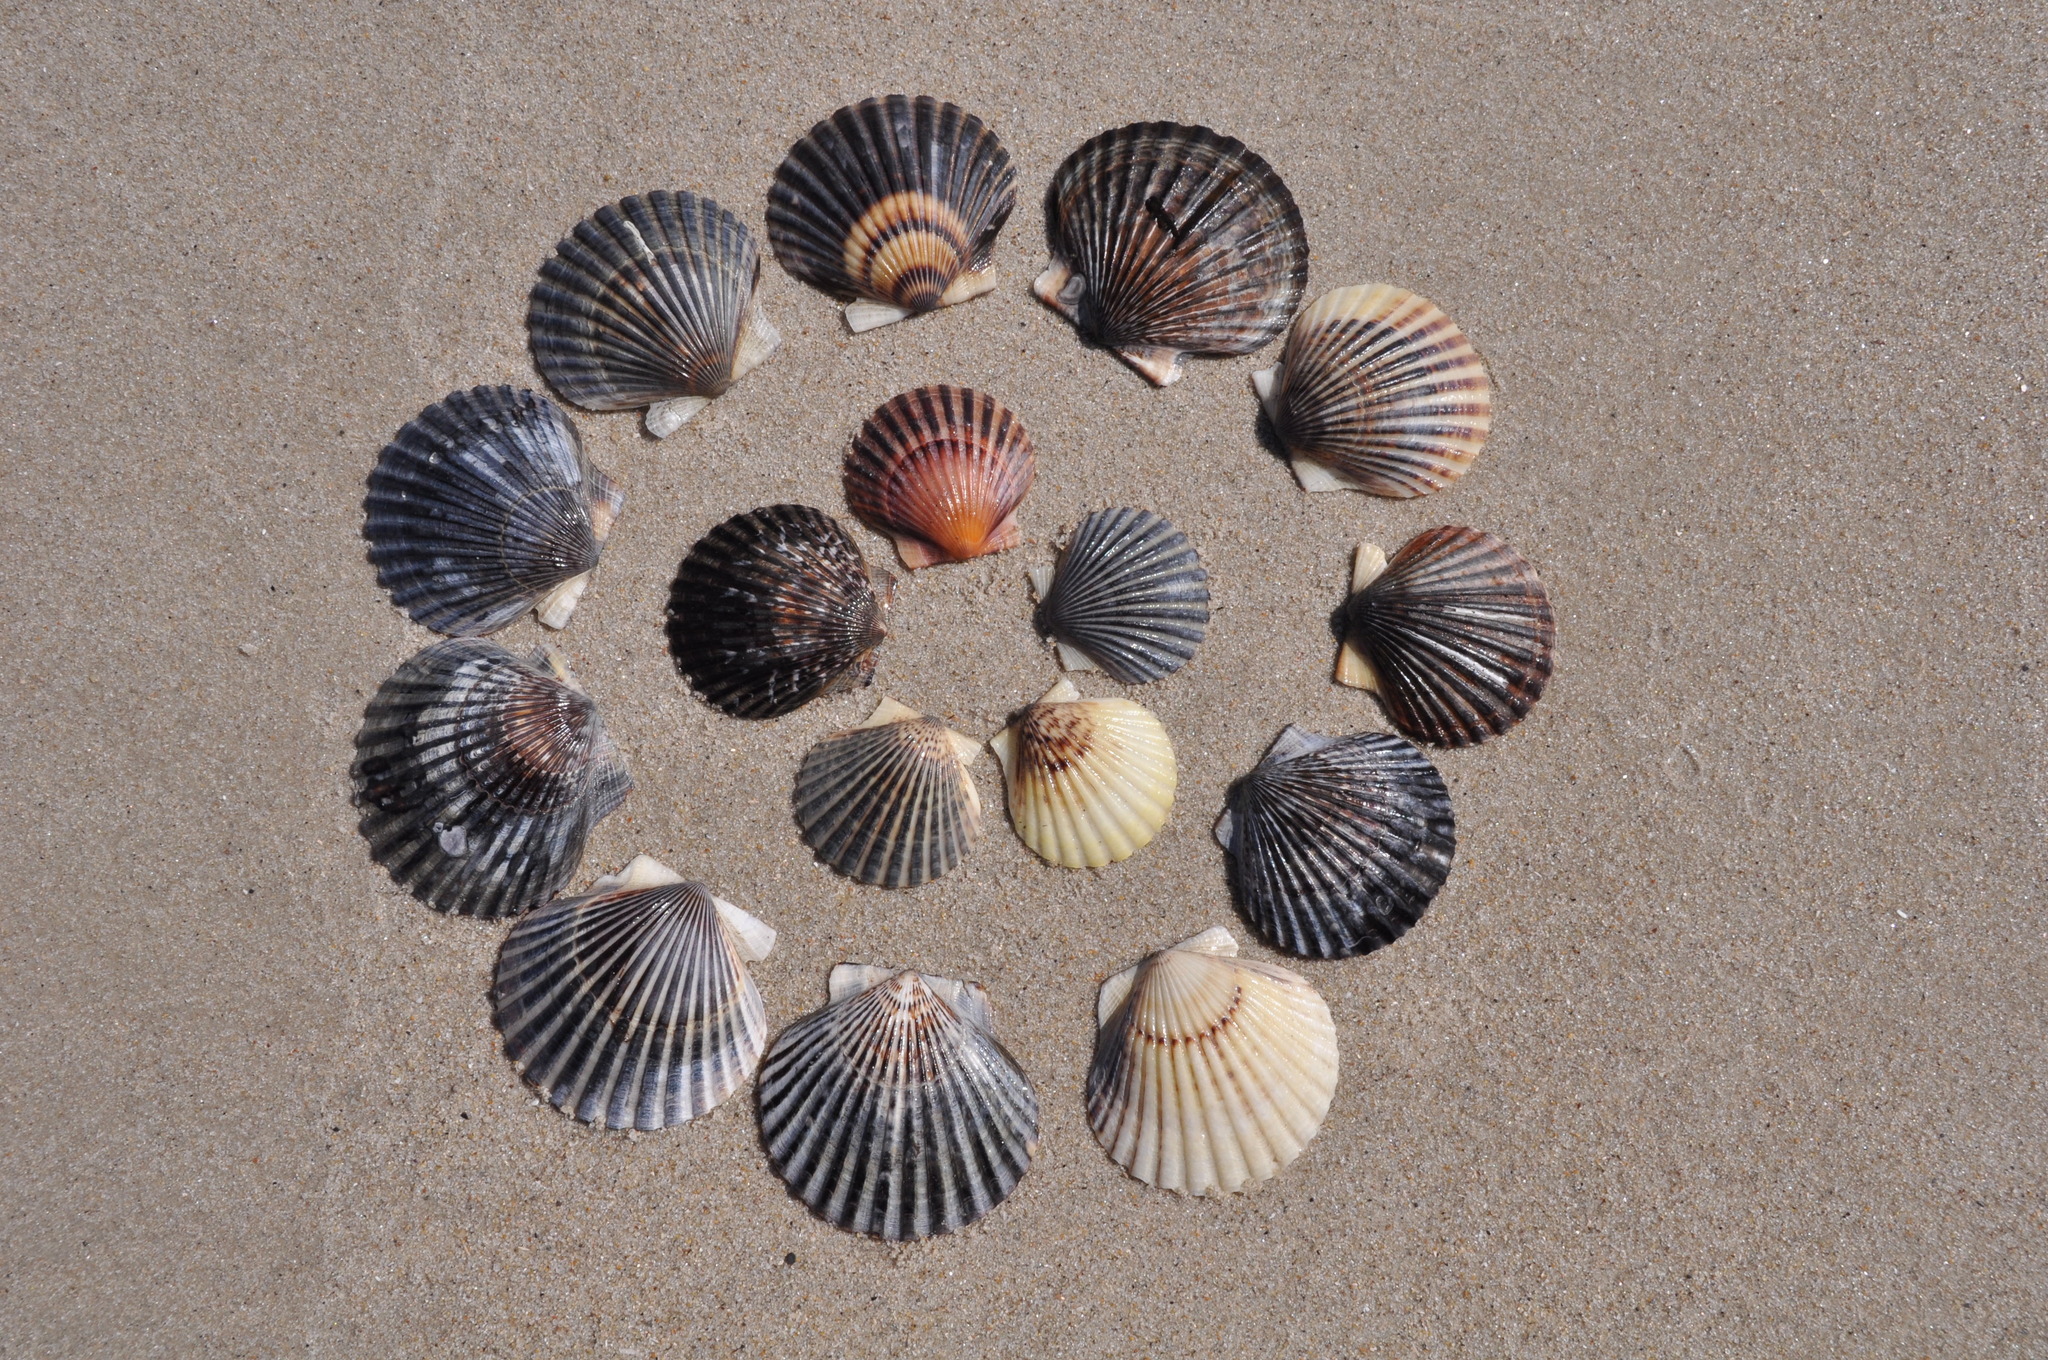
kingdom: Animalia
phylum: Mollusca
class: Bivalvia
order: Pectinida
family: Pectinidae
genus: Argopecten
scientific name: Argopecten irradians
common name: Atlantic bay scallop
